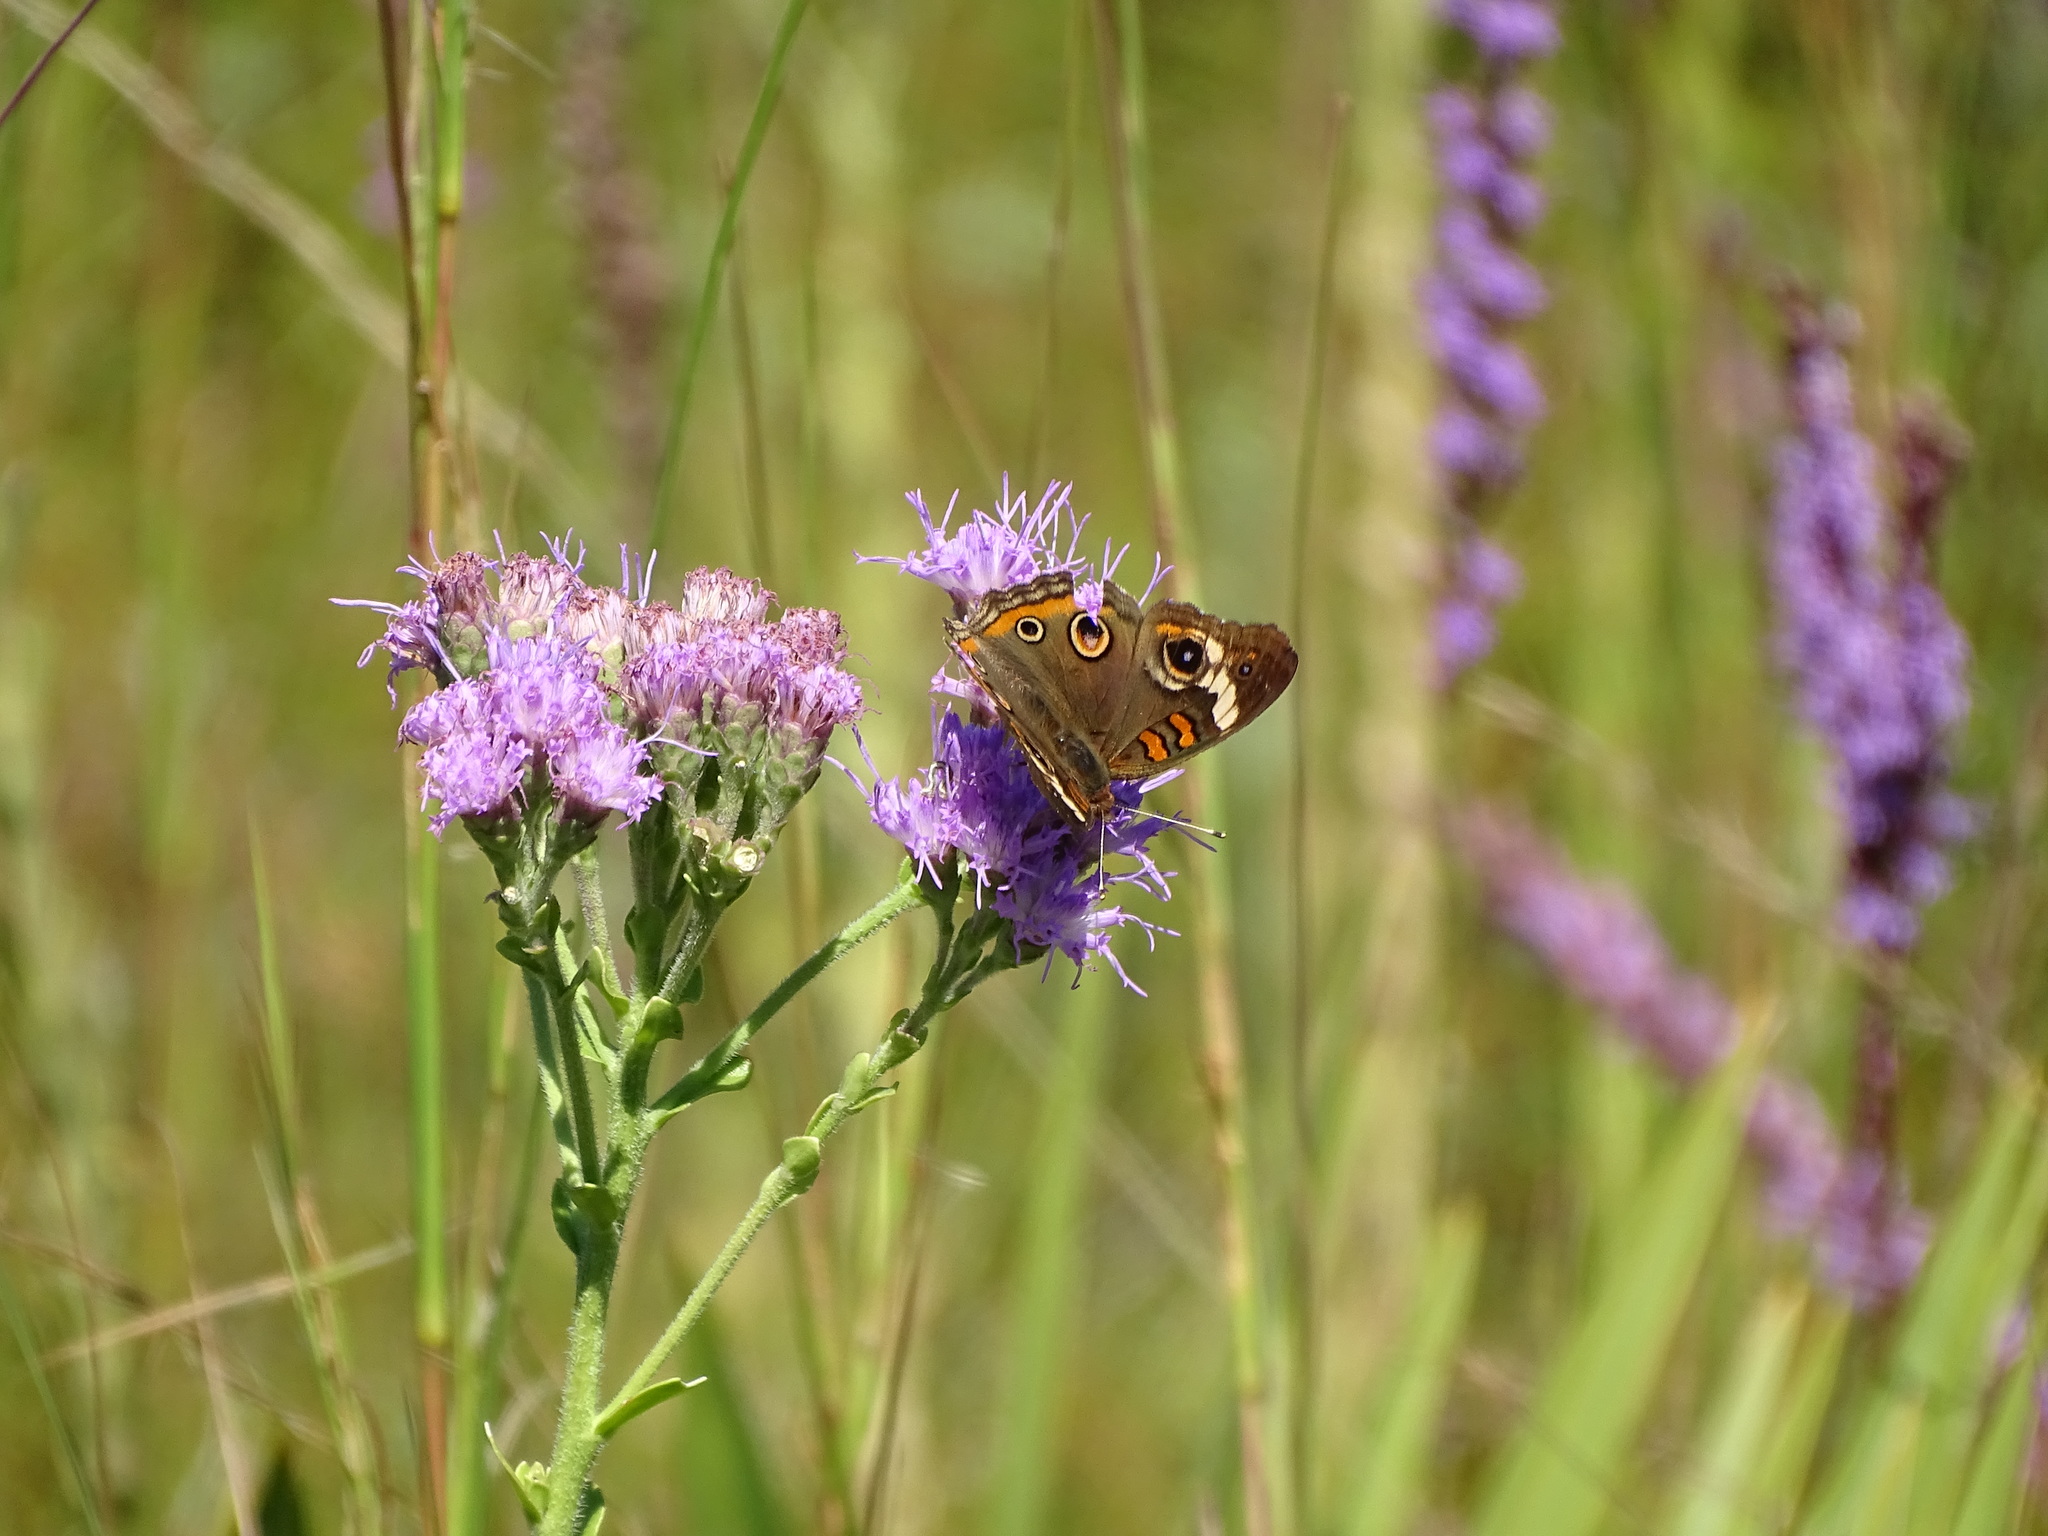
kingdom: Animalia
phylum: Arthropoda
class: Insecta
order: Lepidoptera
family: Nymphalidae
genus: Junonia
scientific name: Junonia coenia
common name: Common buckeye
